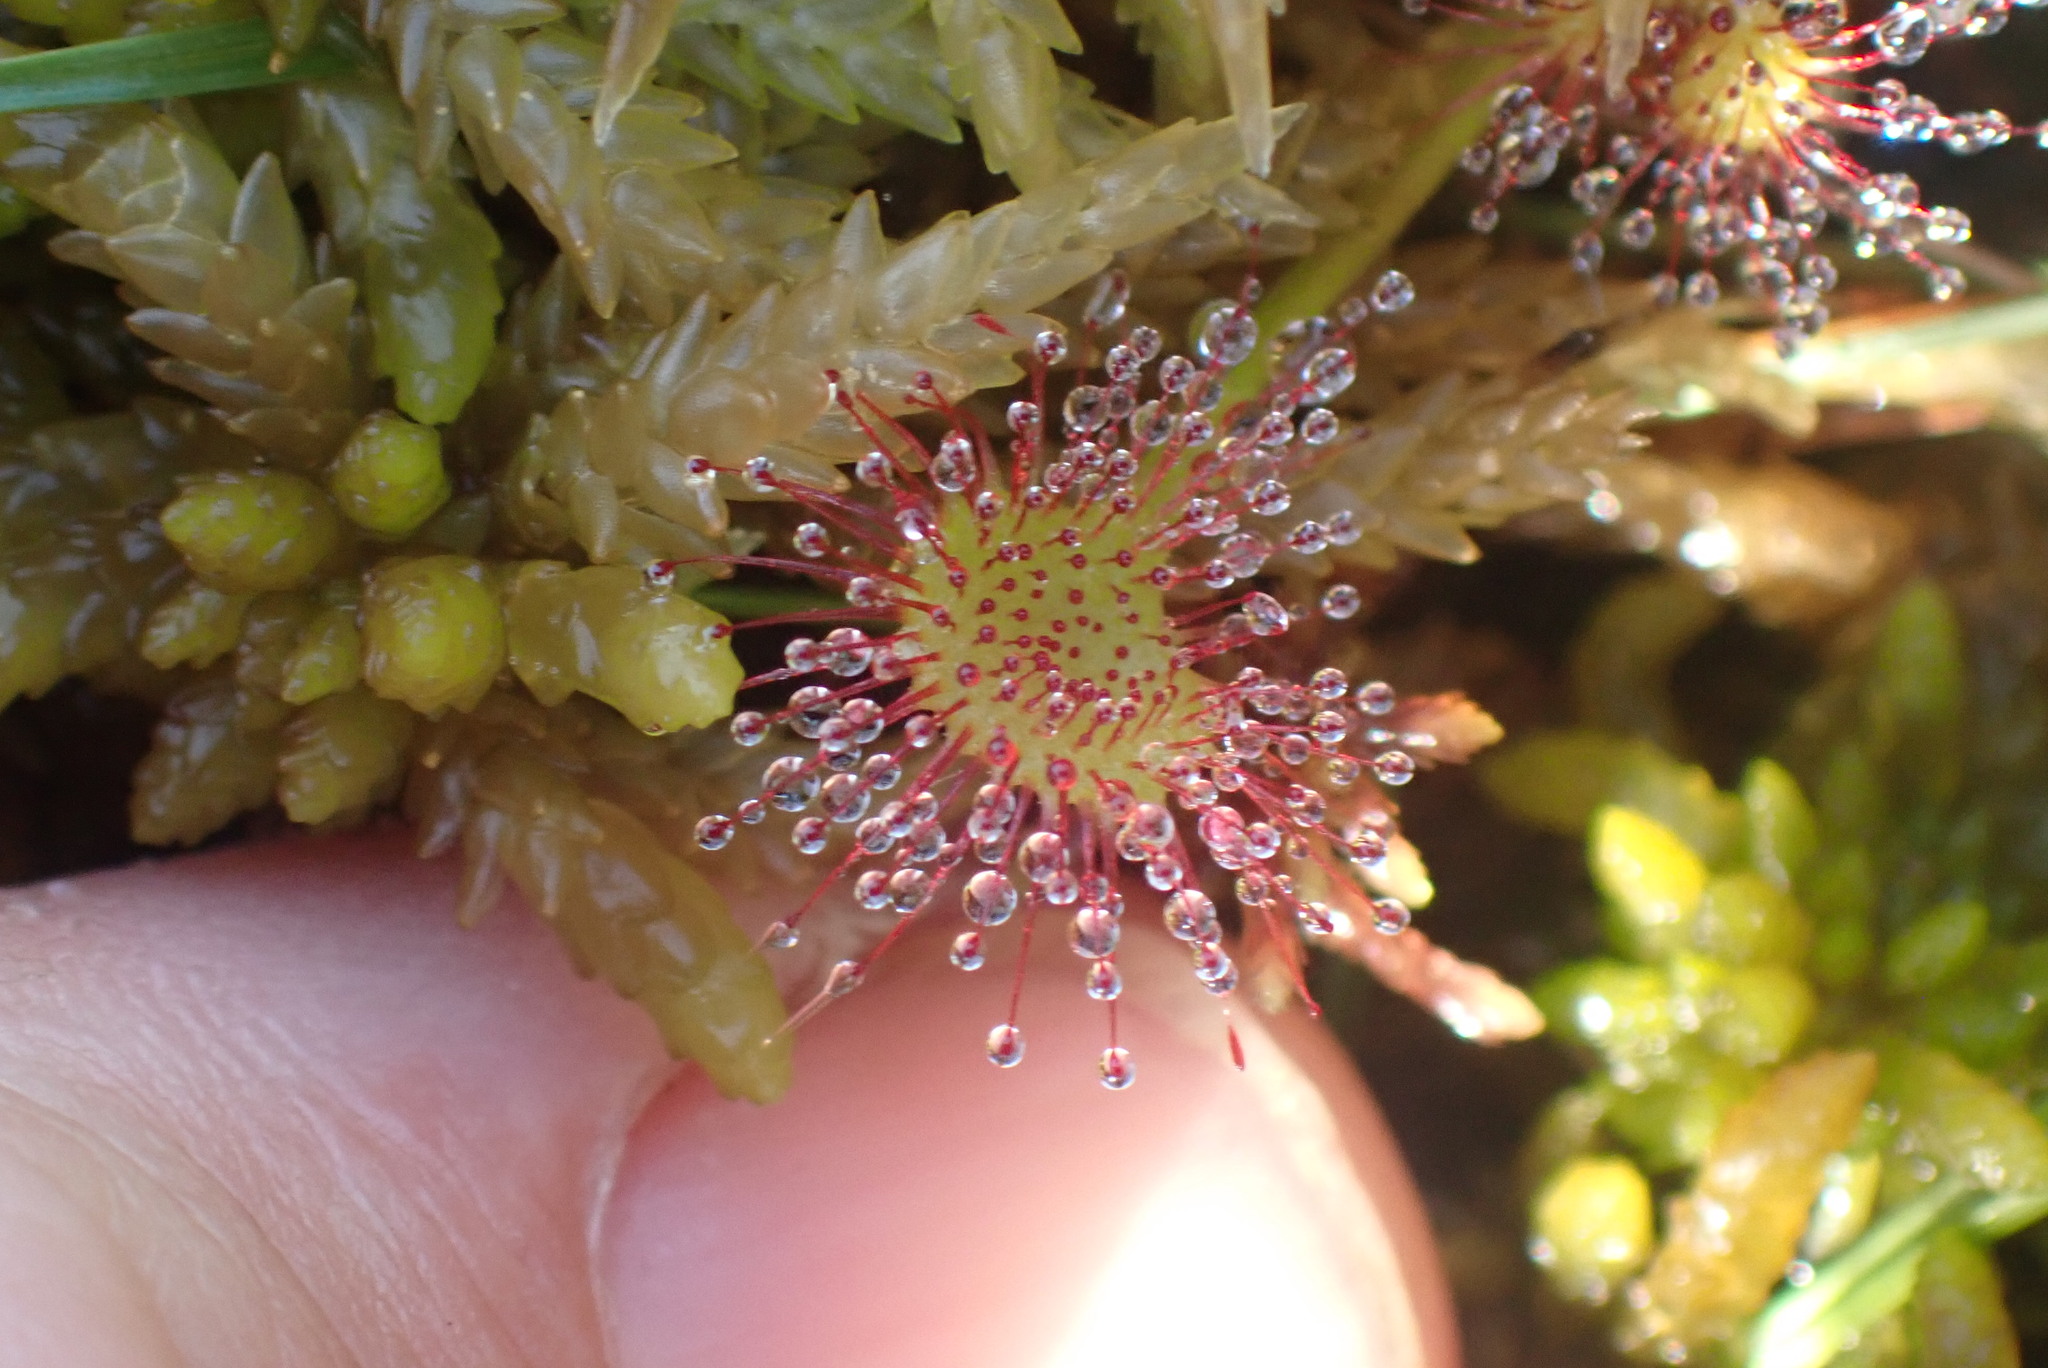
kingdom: Plantae
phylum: Tracheophyta
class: Magnoliopsida
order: Caryophyllales
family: Droseraceae
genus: Drosera
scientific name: Drosera rotundifolia
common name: Round-leaved sundew
